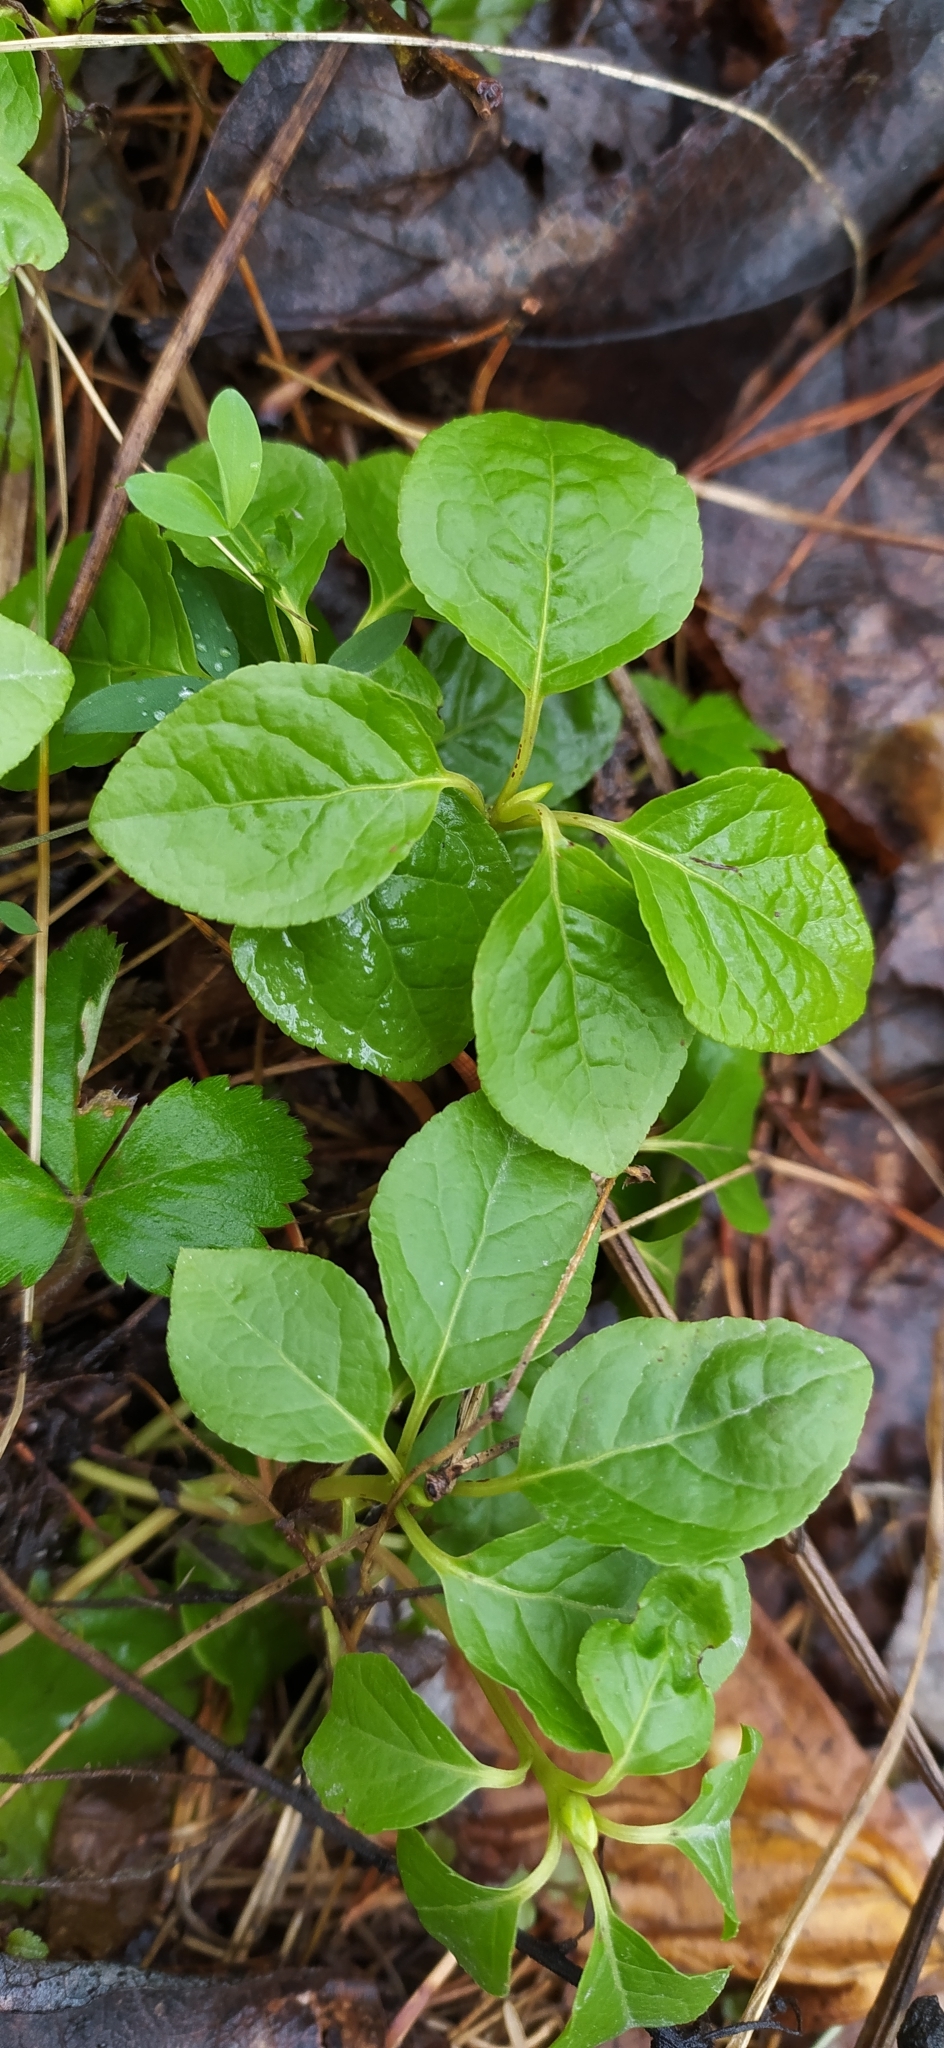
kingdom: Plantae
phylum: Tracheophyta
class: Magnoliopsida
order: Ericales
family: Ericaceae
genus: Orthilia
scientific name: Orthilia secunda
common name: One-sided orthilia
